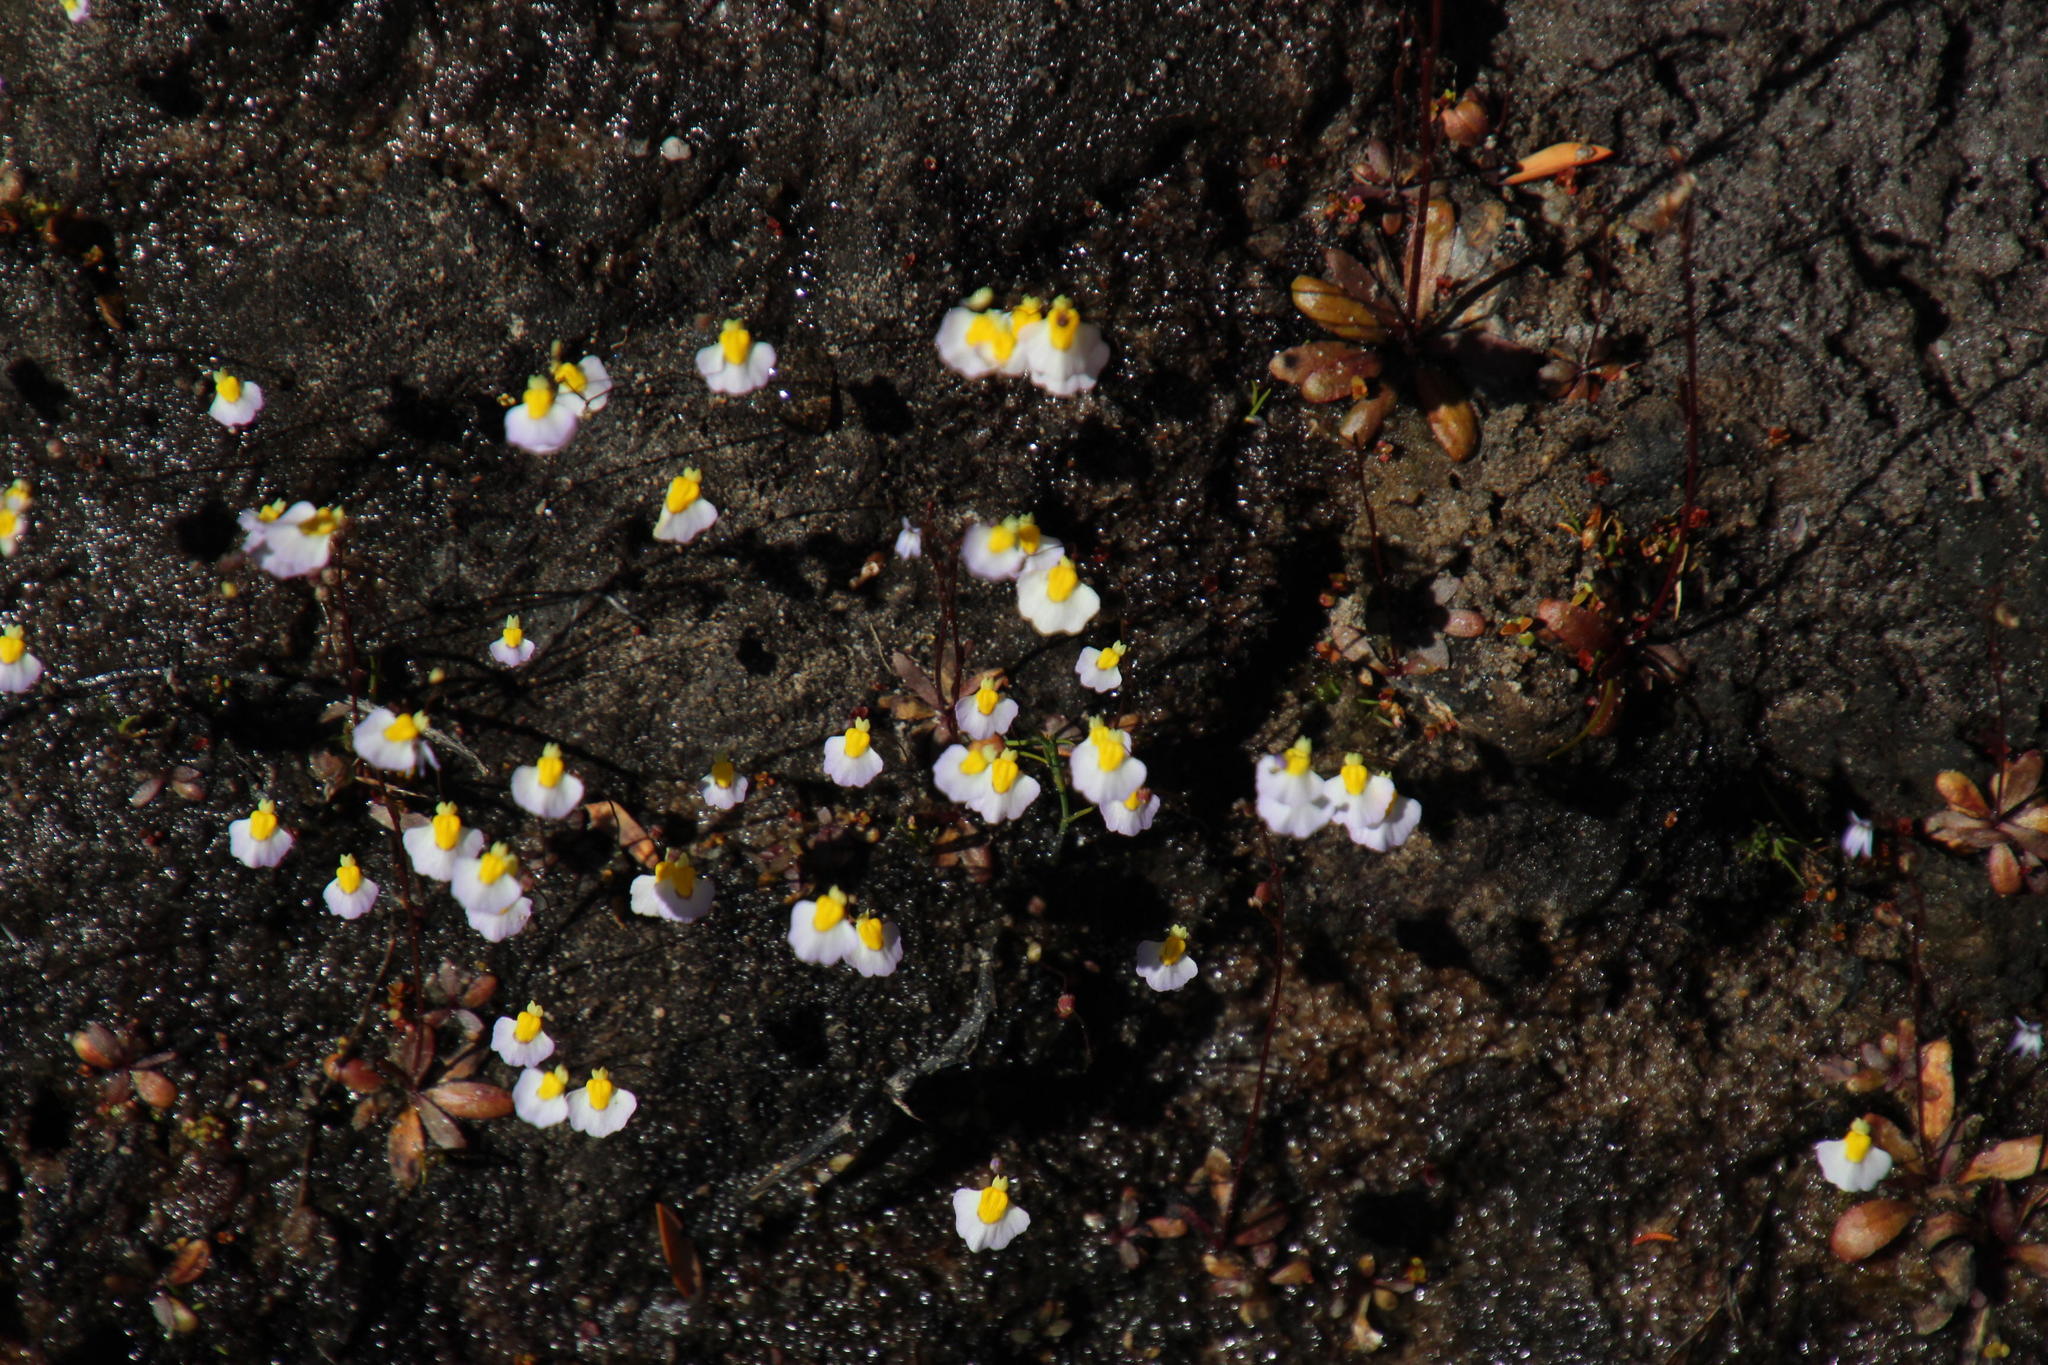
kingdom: Plantae
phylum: Tracheophyta
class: Magnoliopsida
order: Lamiales
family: Lentibulariaceae
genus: Utricularia
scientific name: Utricularia bisquamata
